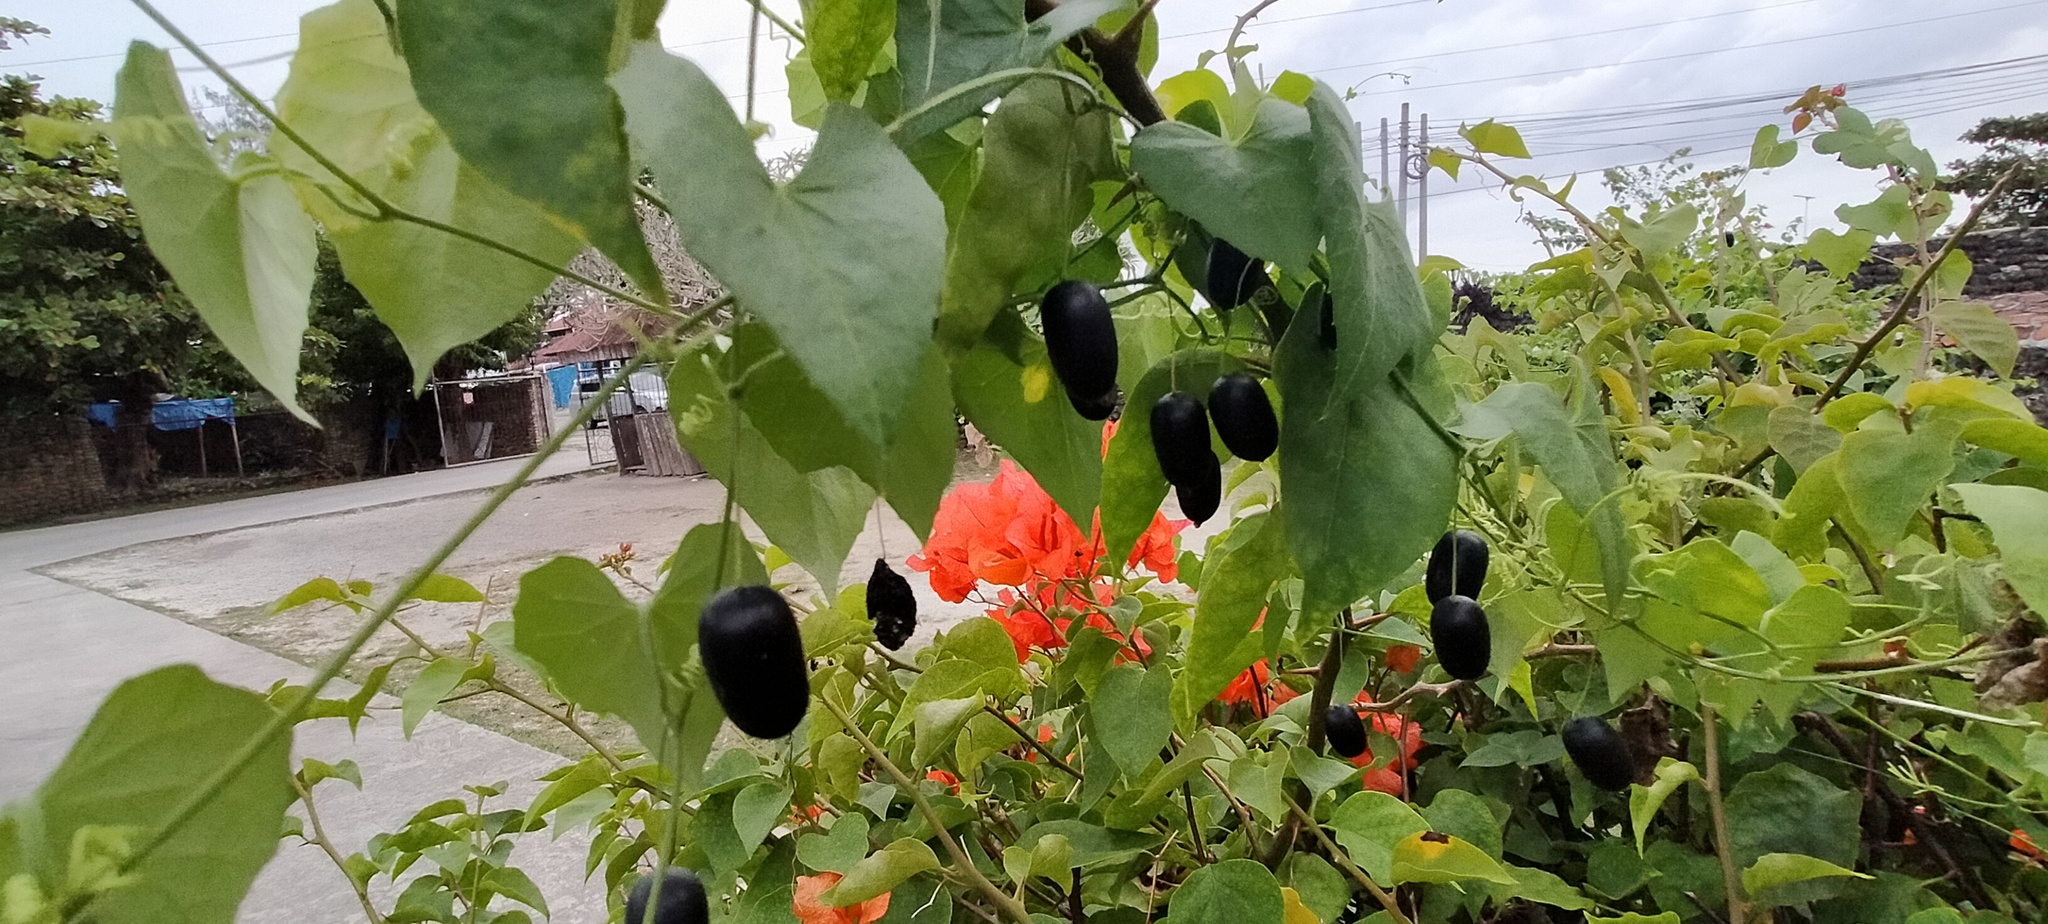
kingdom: Plantae
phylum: Tracheophyta
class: Magnoliopsida
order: Cucurbitales
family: Cucurbitaceae
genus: Melothria
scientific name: Melothria pendula
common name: Creeping-cucumber
